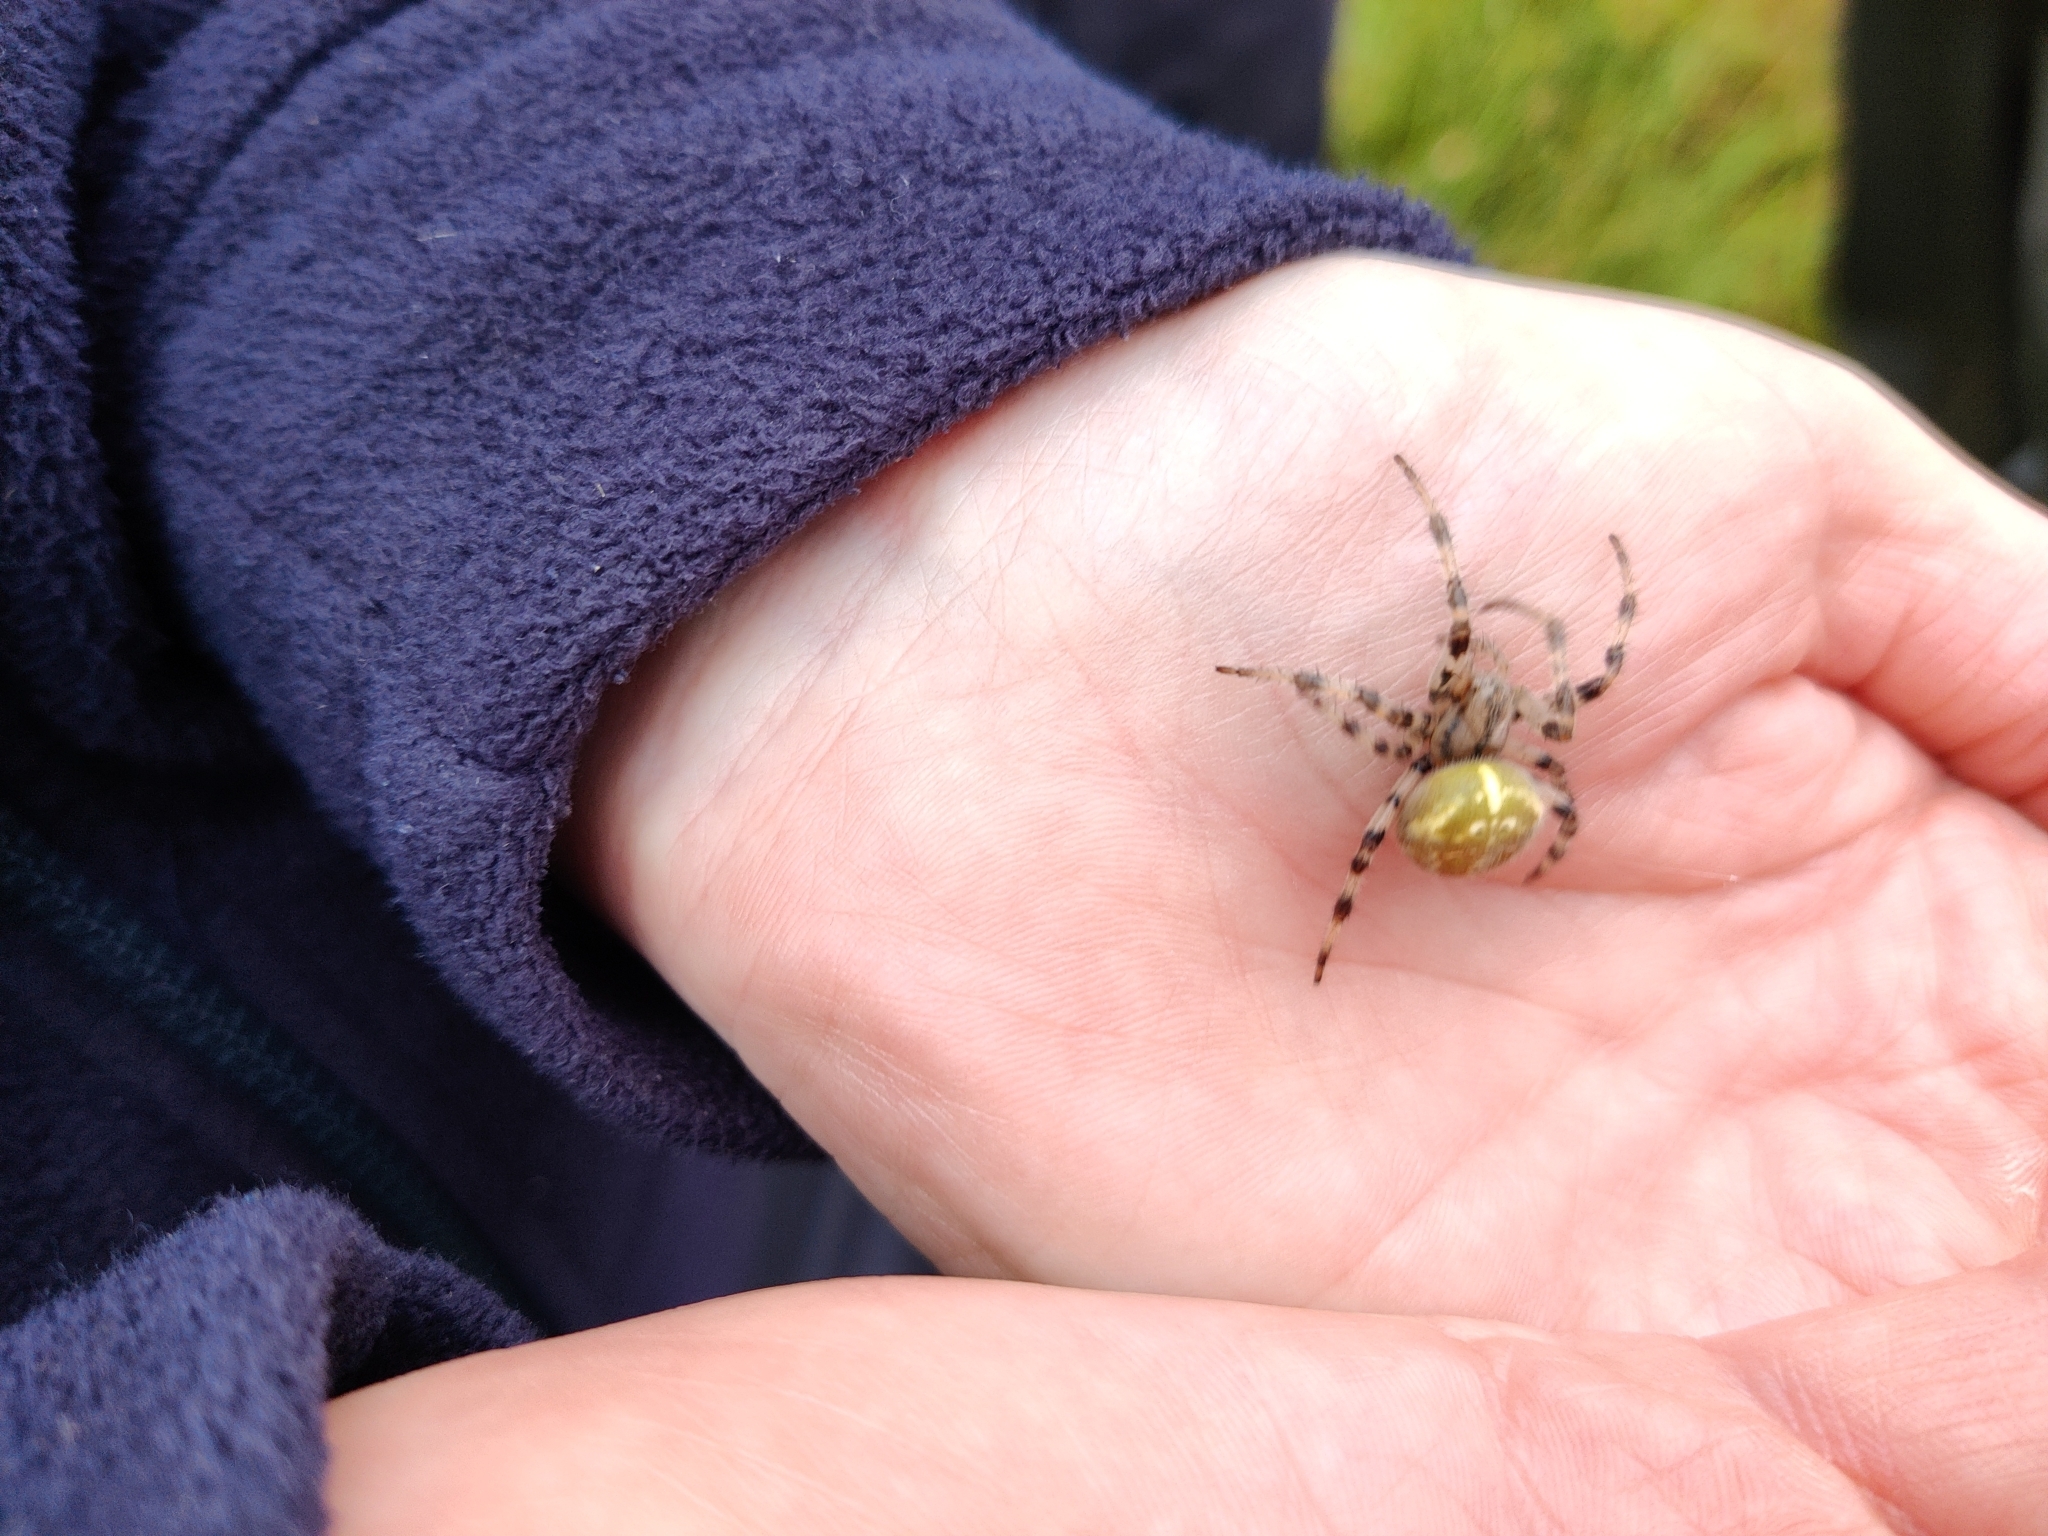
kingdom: Animalia
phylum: Arthropoda
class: Arachnida
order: Araneae
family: Araneidae
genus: Araneus
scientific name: Araneus quadratus
